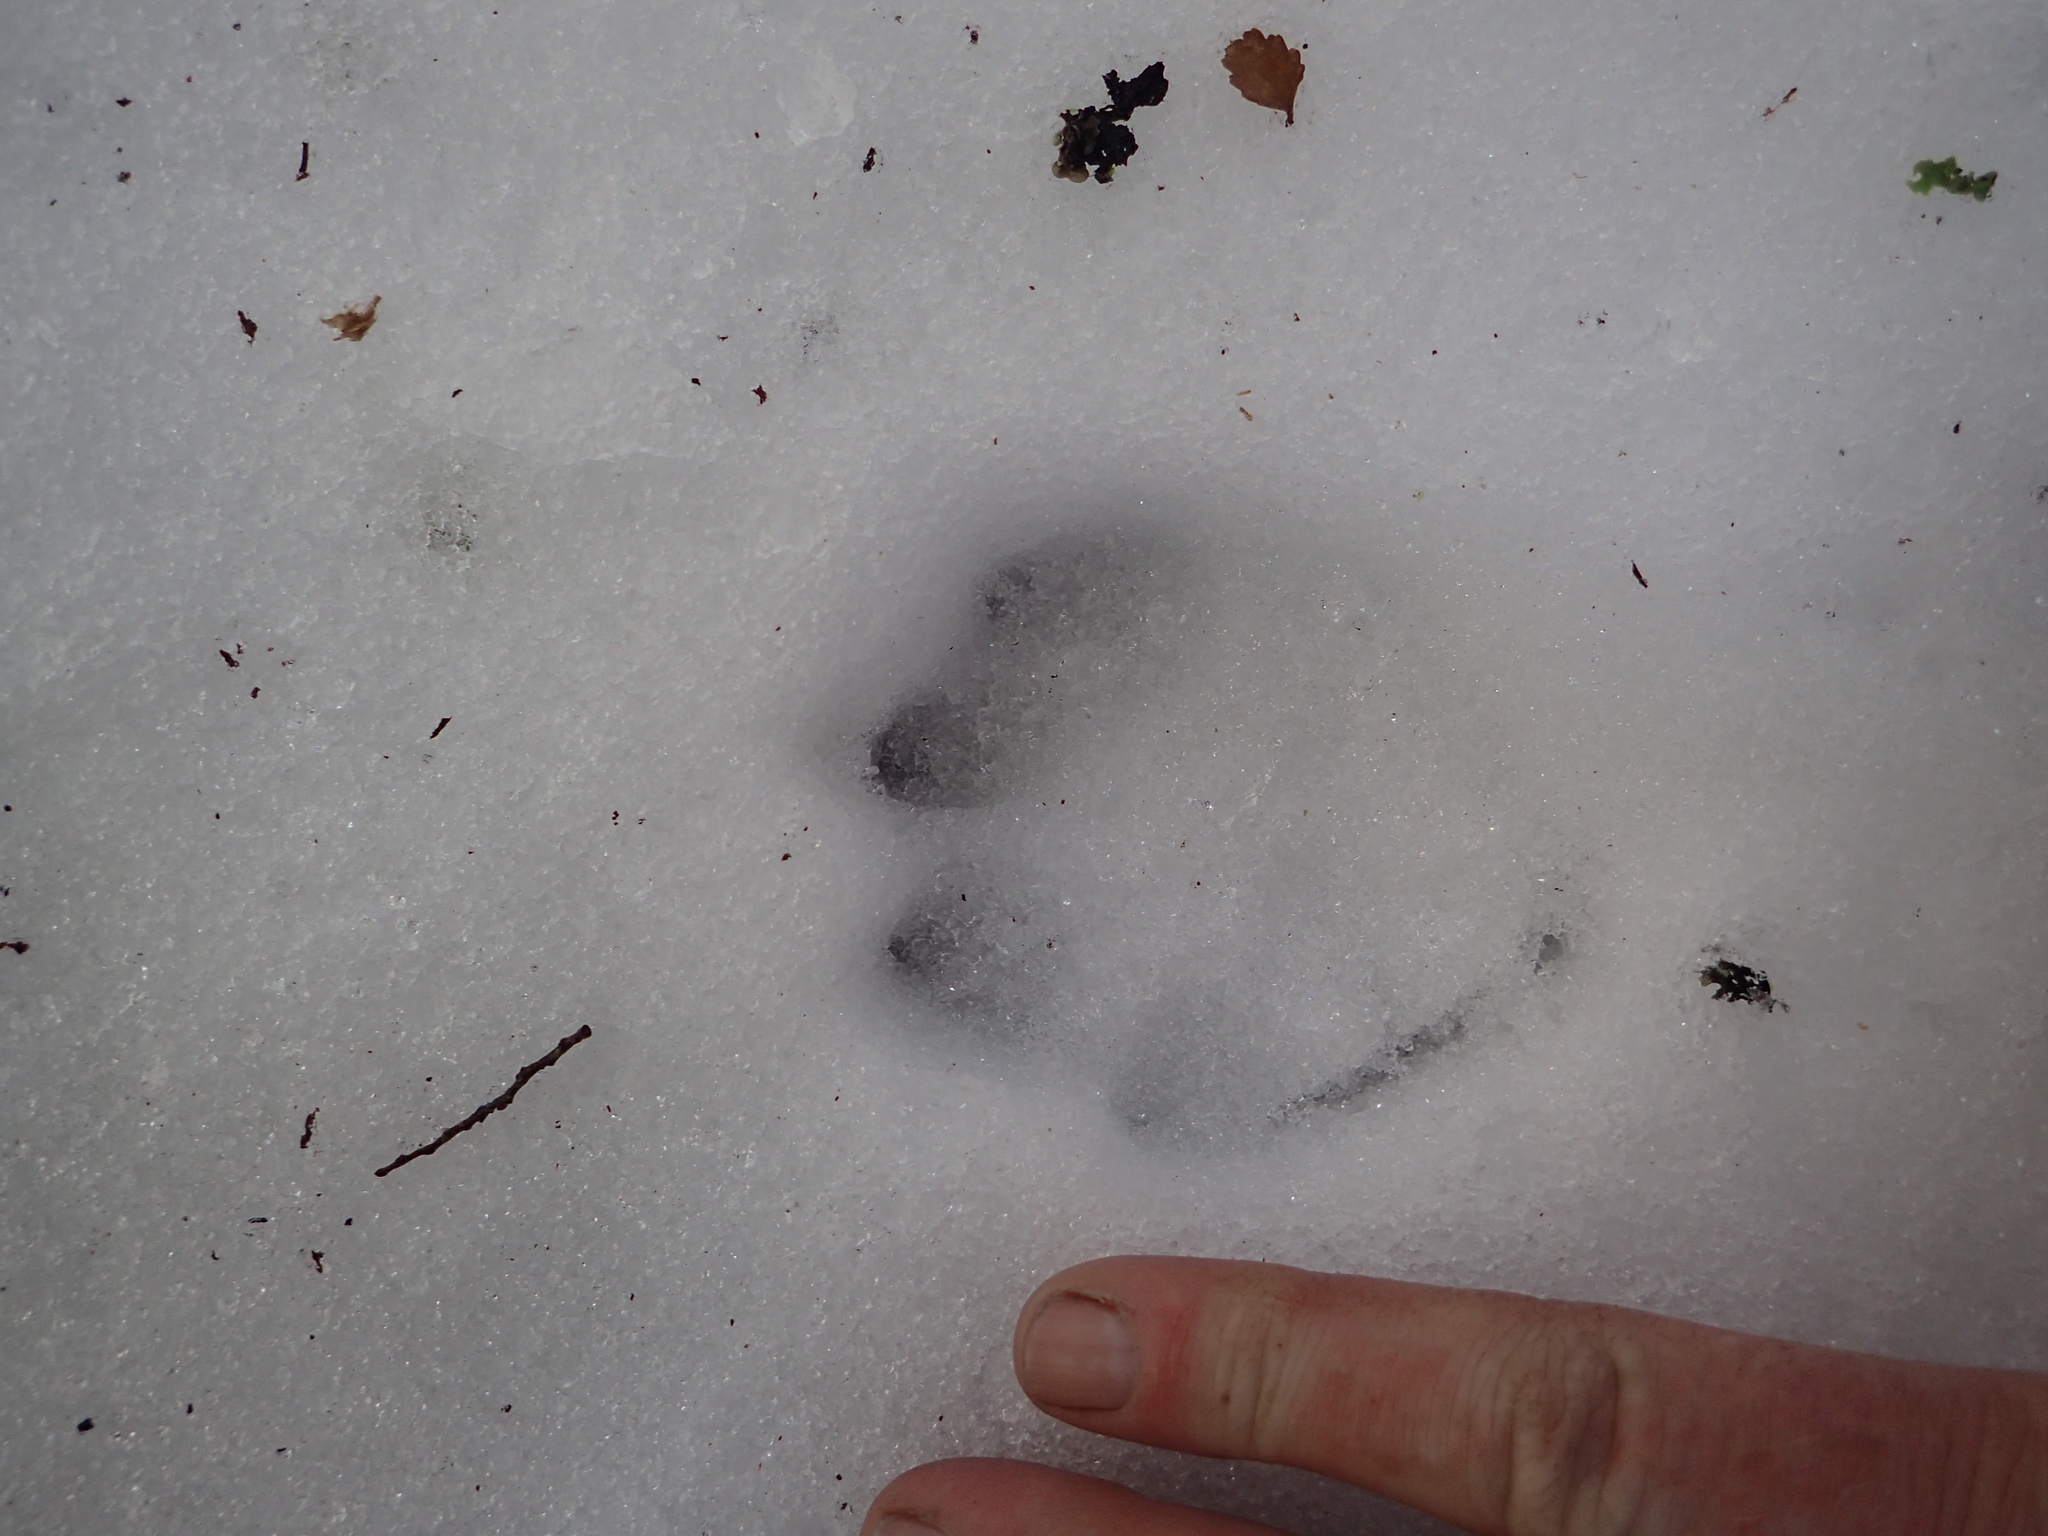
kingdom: Animalia
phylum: Chordata
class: Mammalia
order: Carnivora
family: Felidae
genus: Felis
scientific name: Felis catus
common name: Domestic cat
